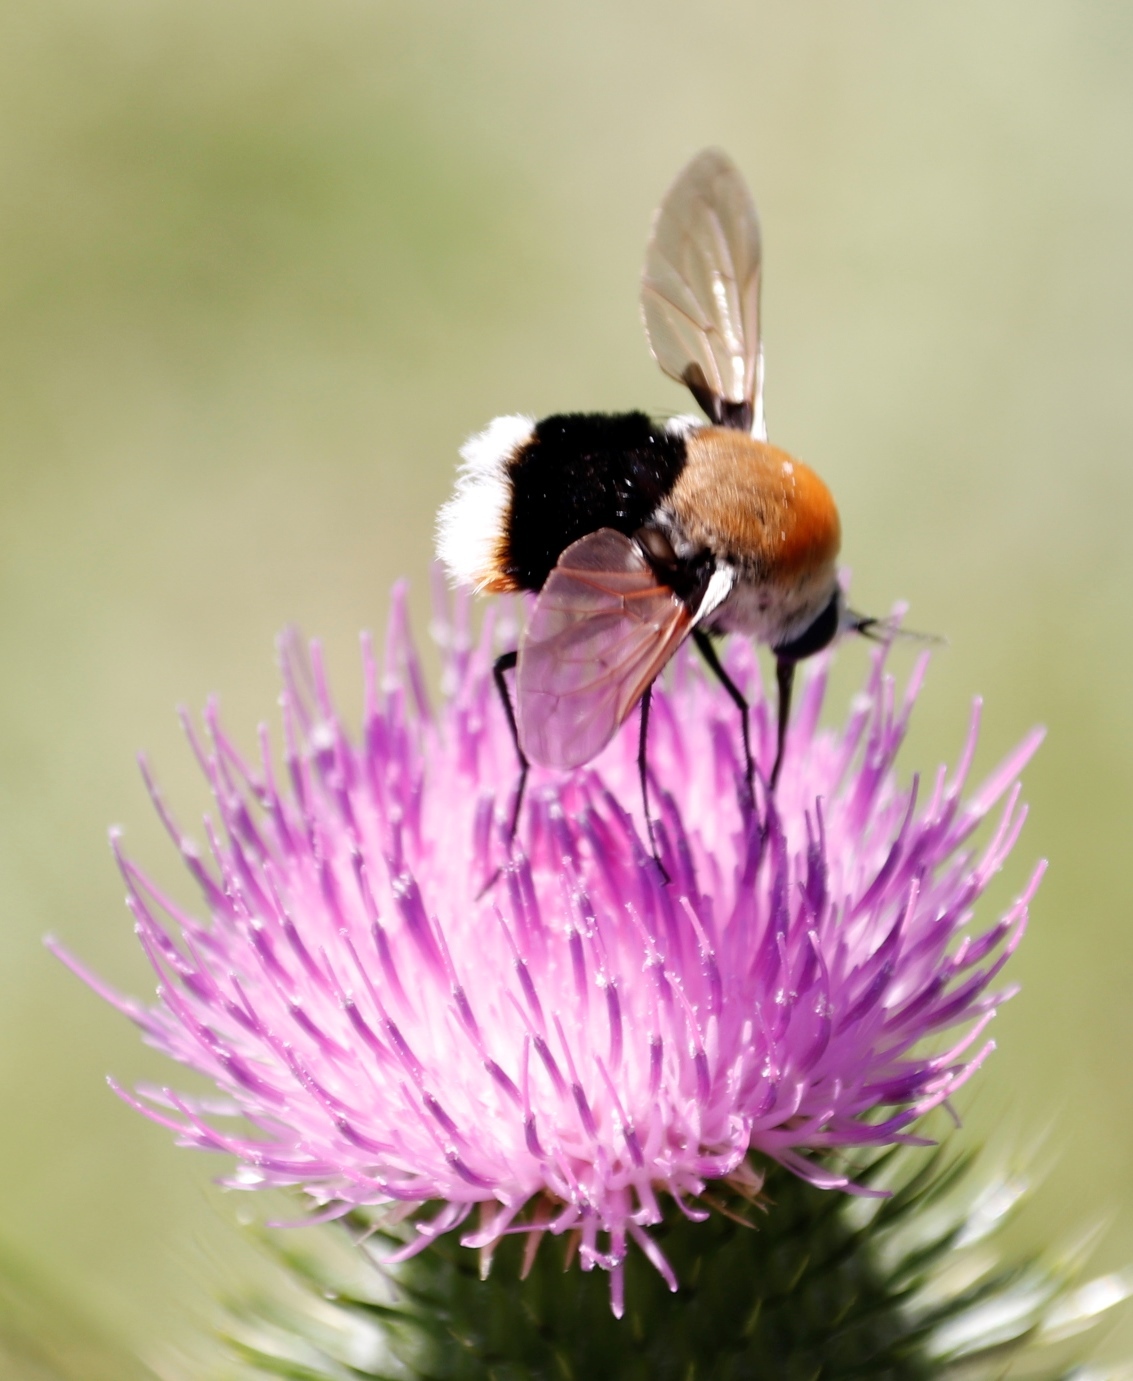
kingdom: Animalia
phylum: Arthropoda
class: Insecta
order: Diptera
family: Bombyliidae
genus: Bombomyia
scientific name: Bombomyia discoidea
